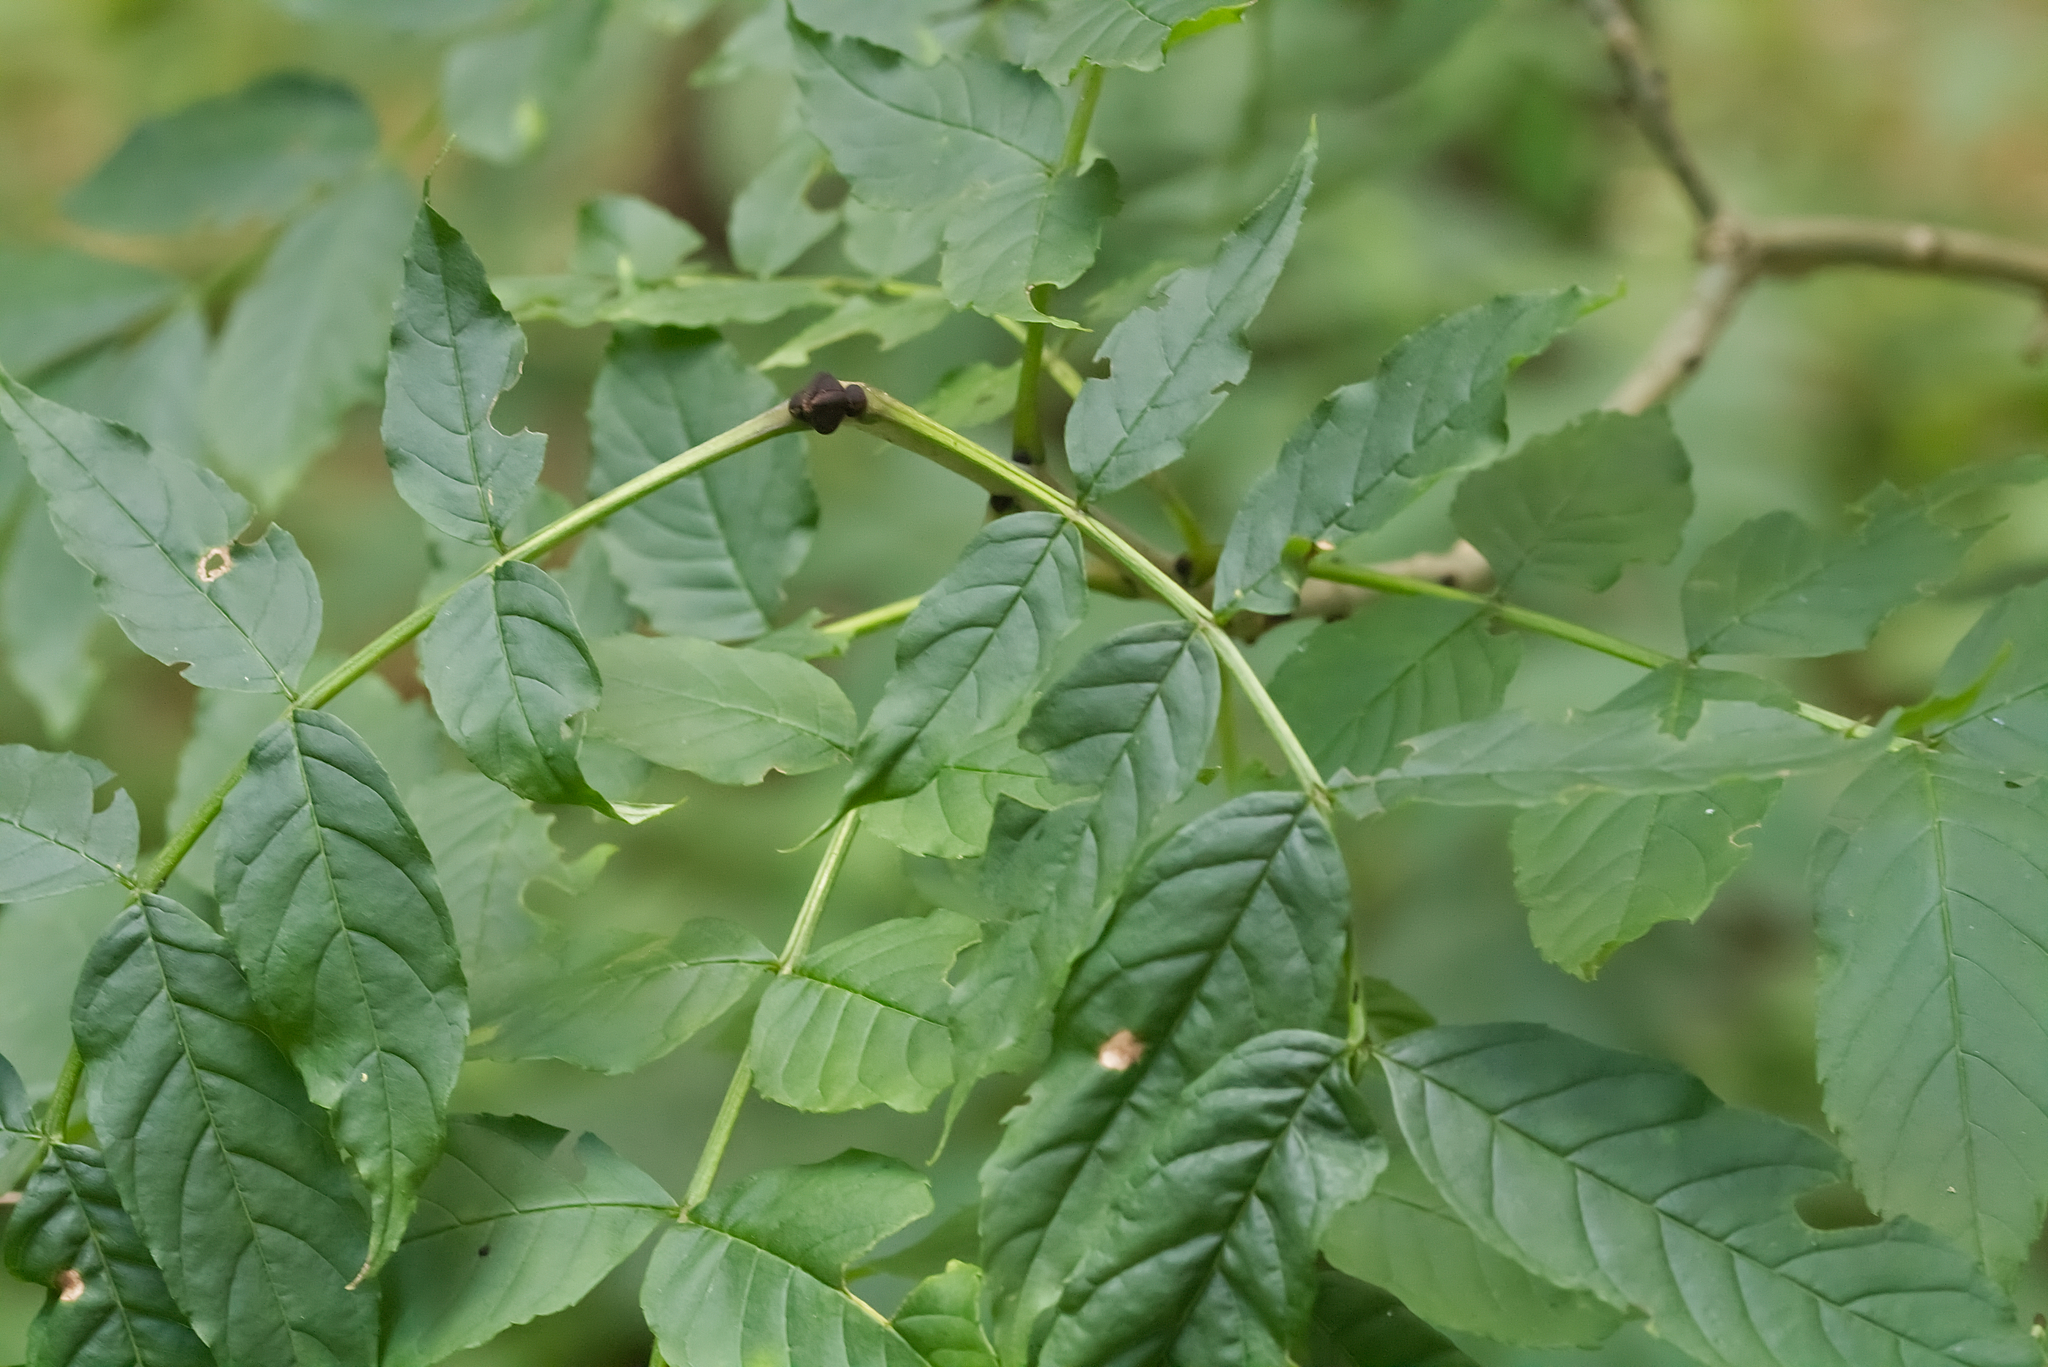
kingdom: Plantae
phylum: Tracheophyta
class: Magnoliopsida
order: Lamiales
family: Oleaceae
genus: Fraxinus
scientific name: Fraxinus excelsior
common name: European ash
